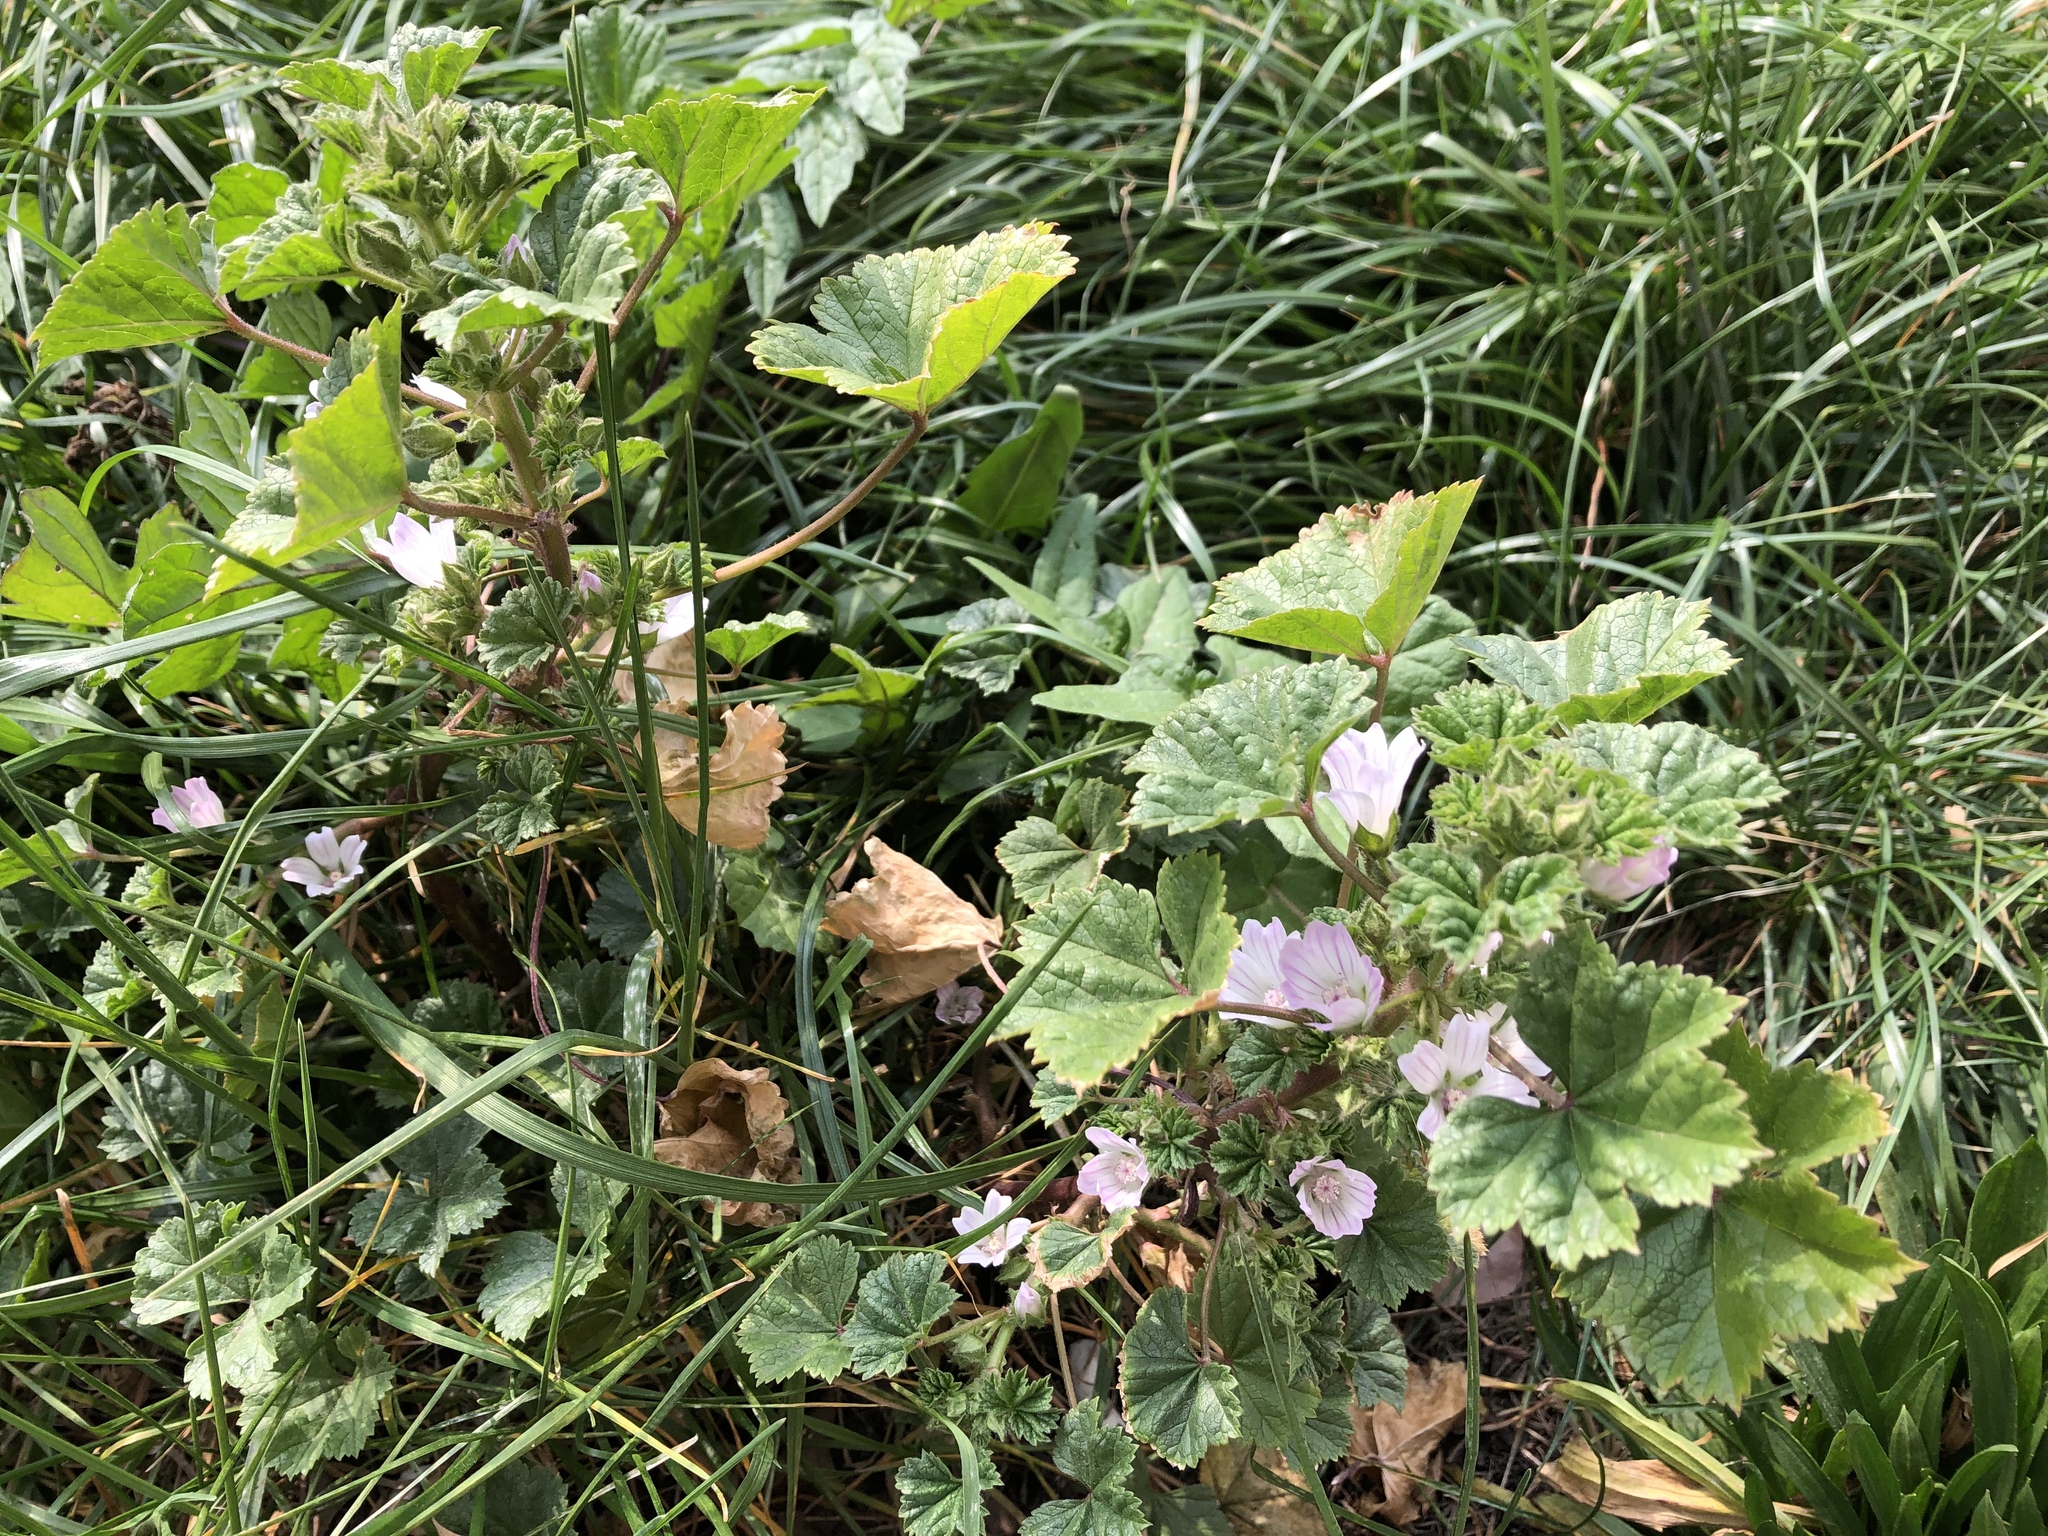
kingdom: Plantae
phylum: Tracheophyta
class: Magnoliopsida
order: Malvales
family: Malvaceae
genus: Malva
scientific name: Malva neglecta
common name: Common mallow
